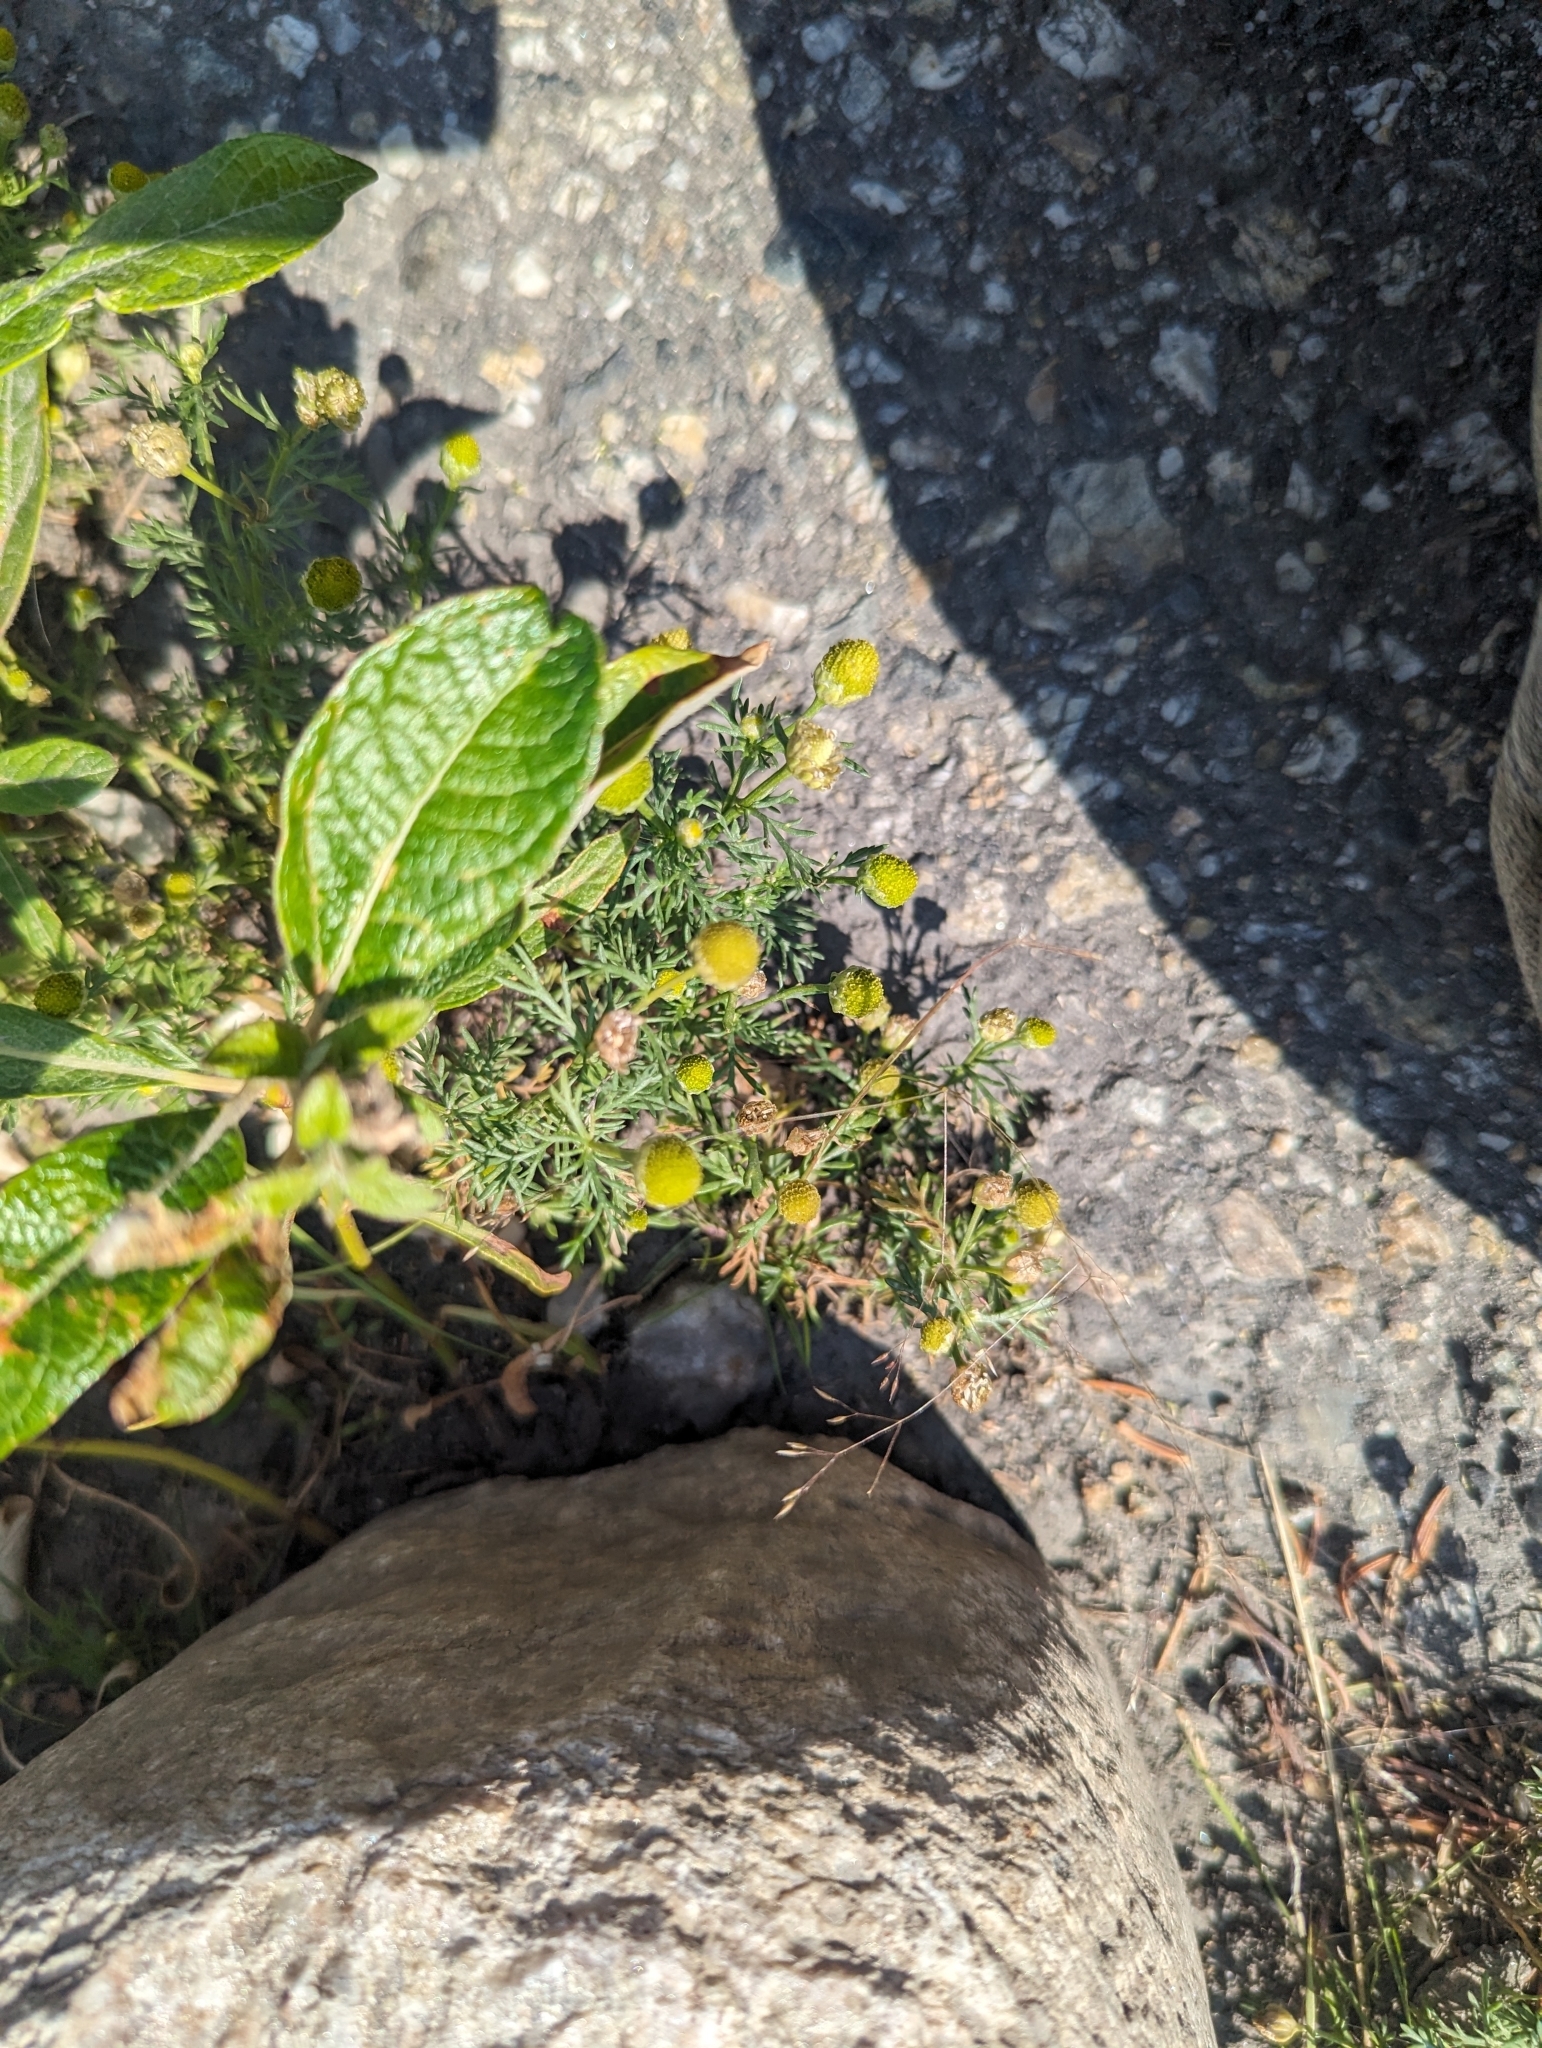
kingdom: Plantae
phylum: Tracheophyta
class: Magnoliopsida
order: Asterales
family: Asteraceae
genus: Matricaria
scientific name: Matricaria discoidea
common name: Disc mayweed
